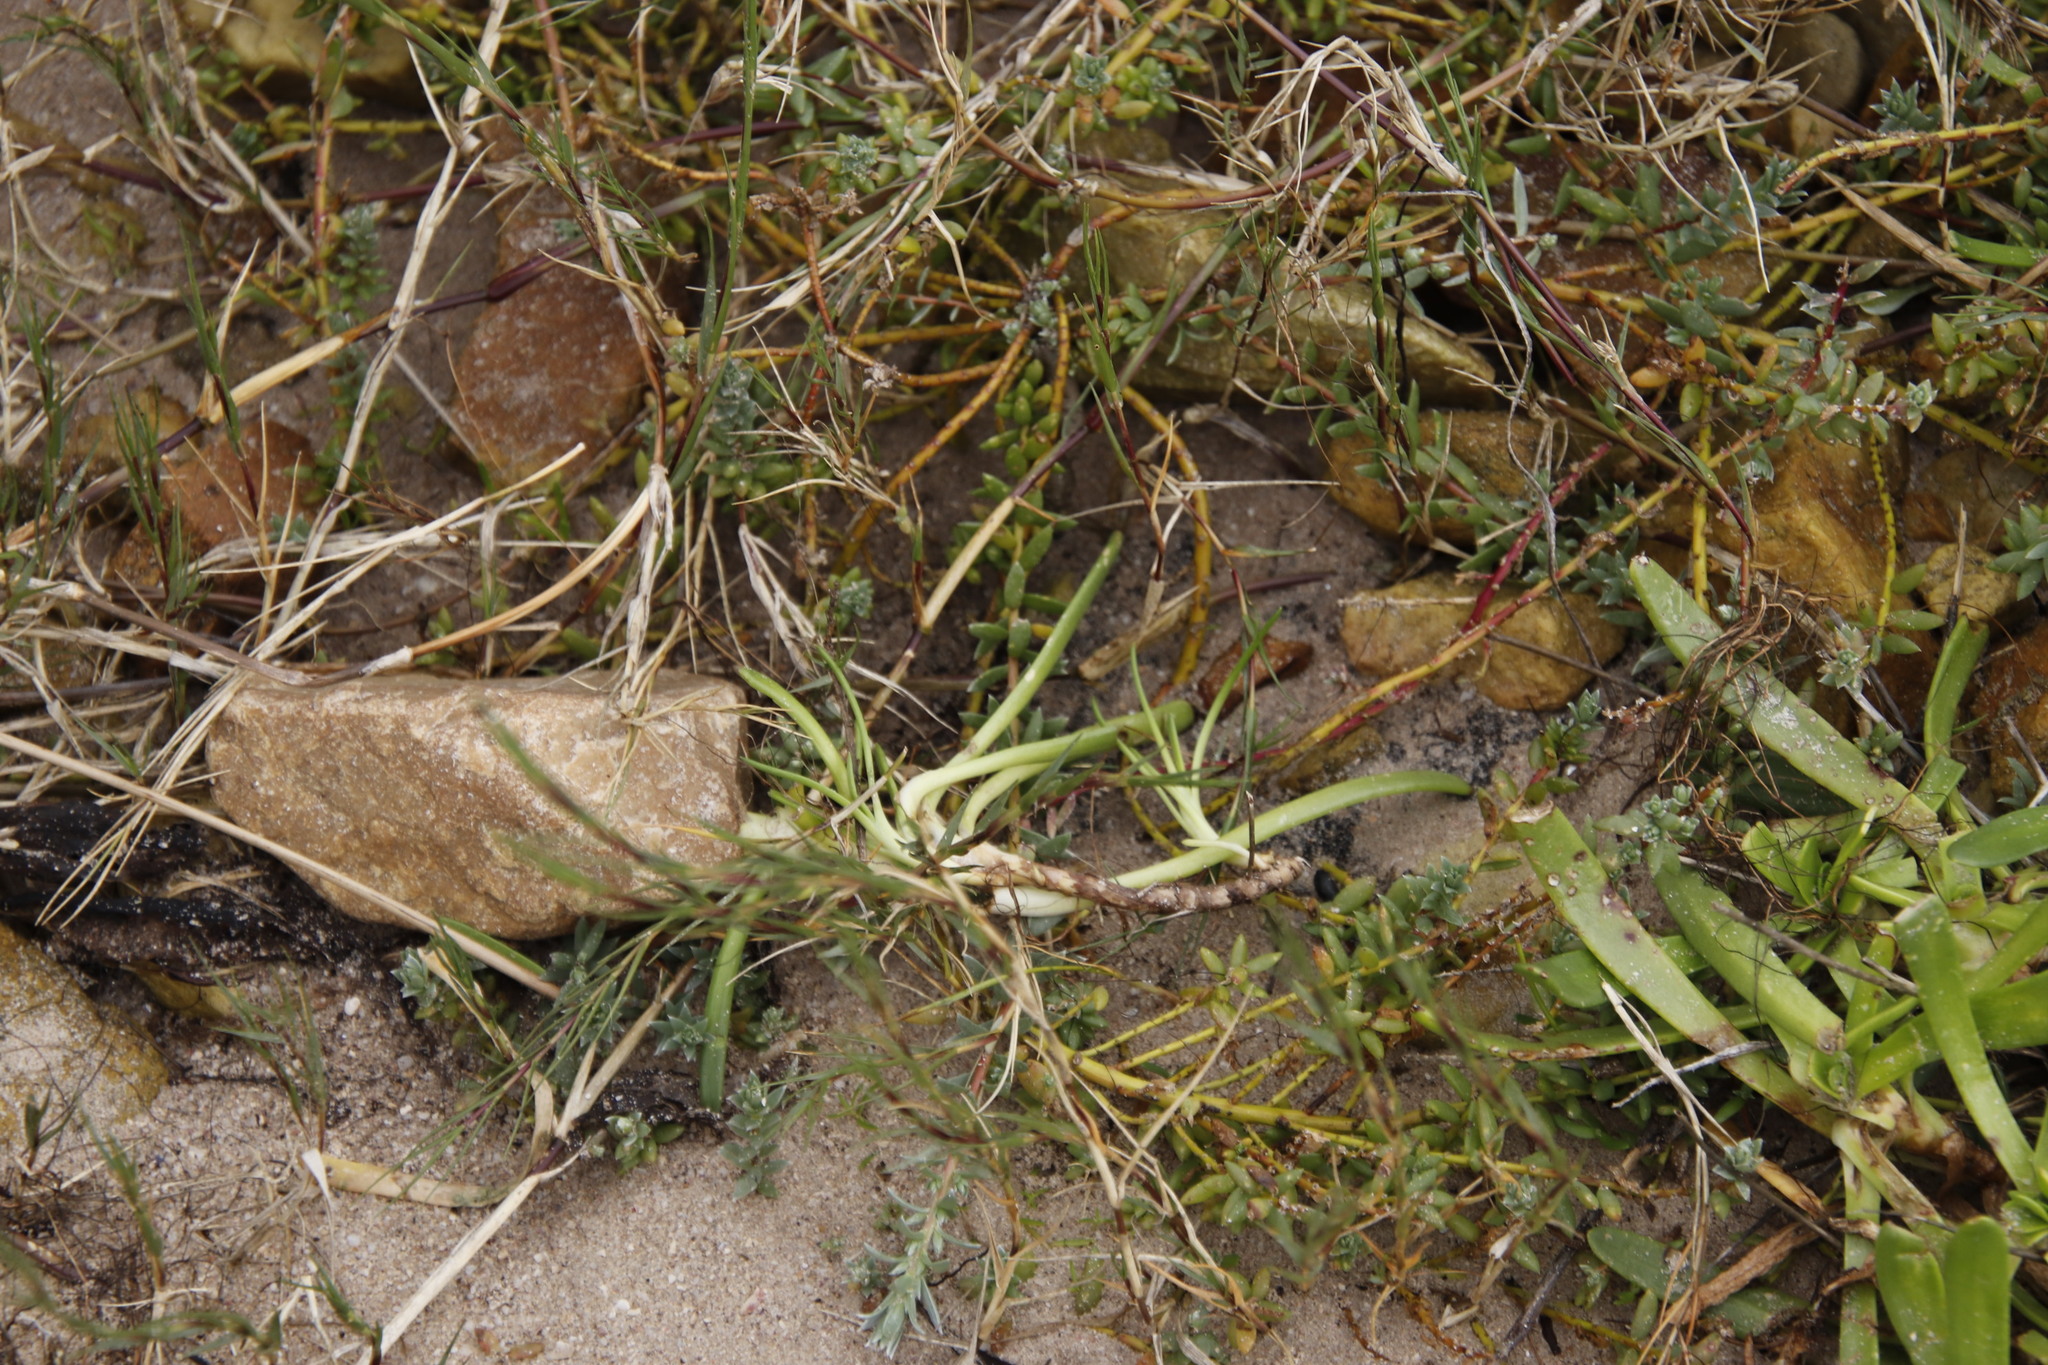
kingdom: Plantae
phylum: Tracheophyta
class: Magnoliopsida
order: Lamiales
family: Plantaginaceae
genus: Plantago
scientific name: Plantago carnosa
